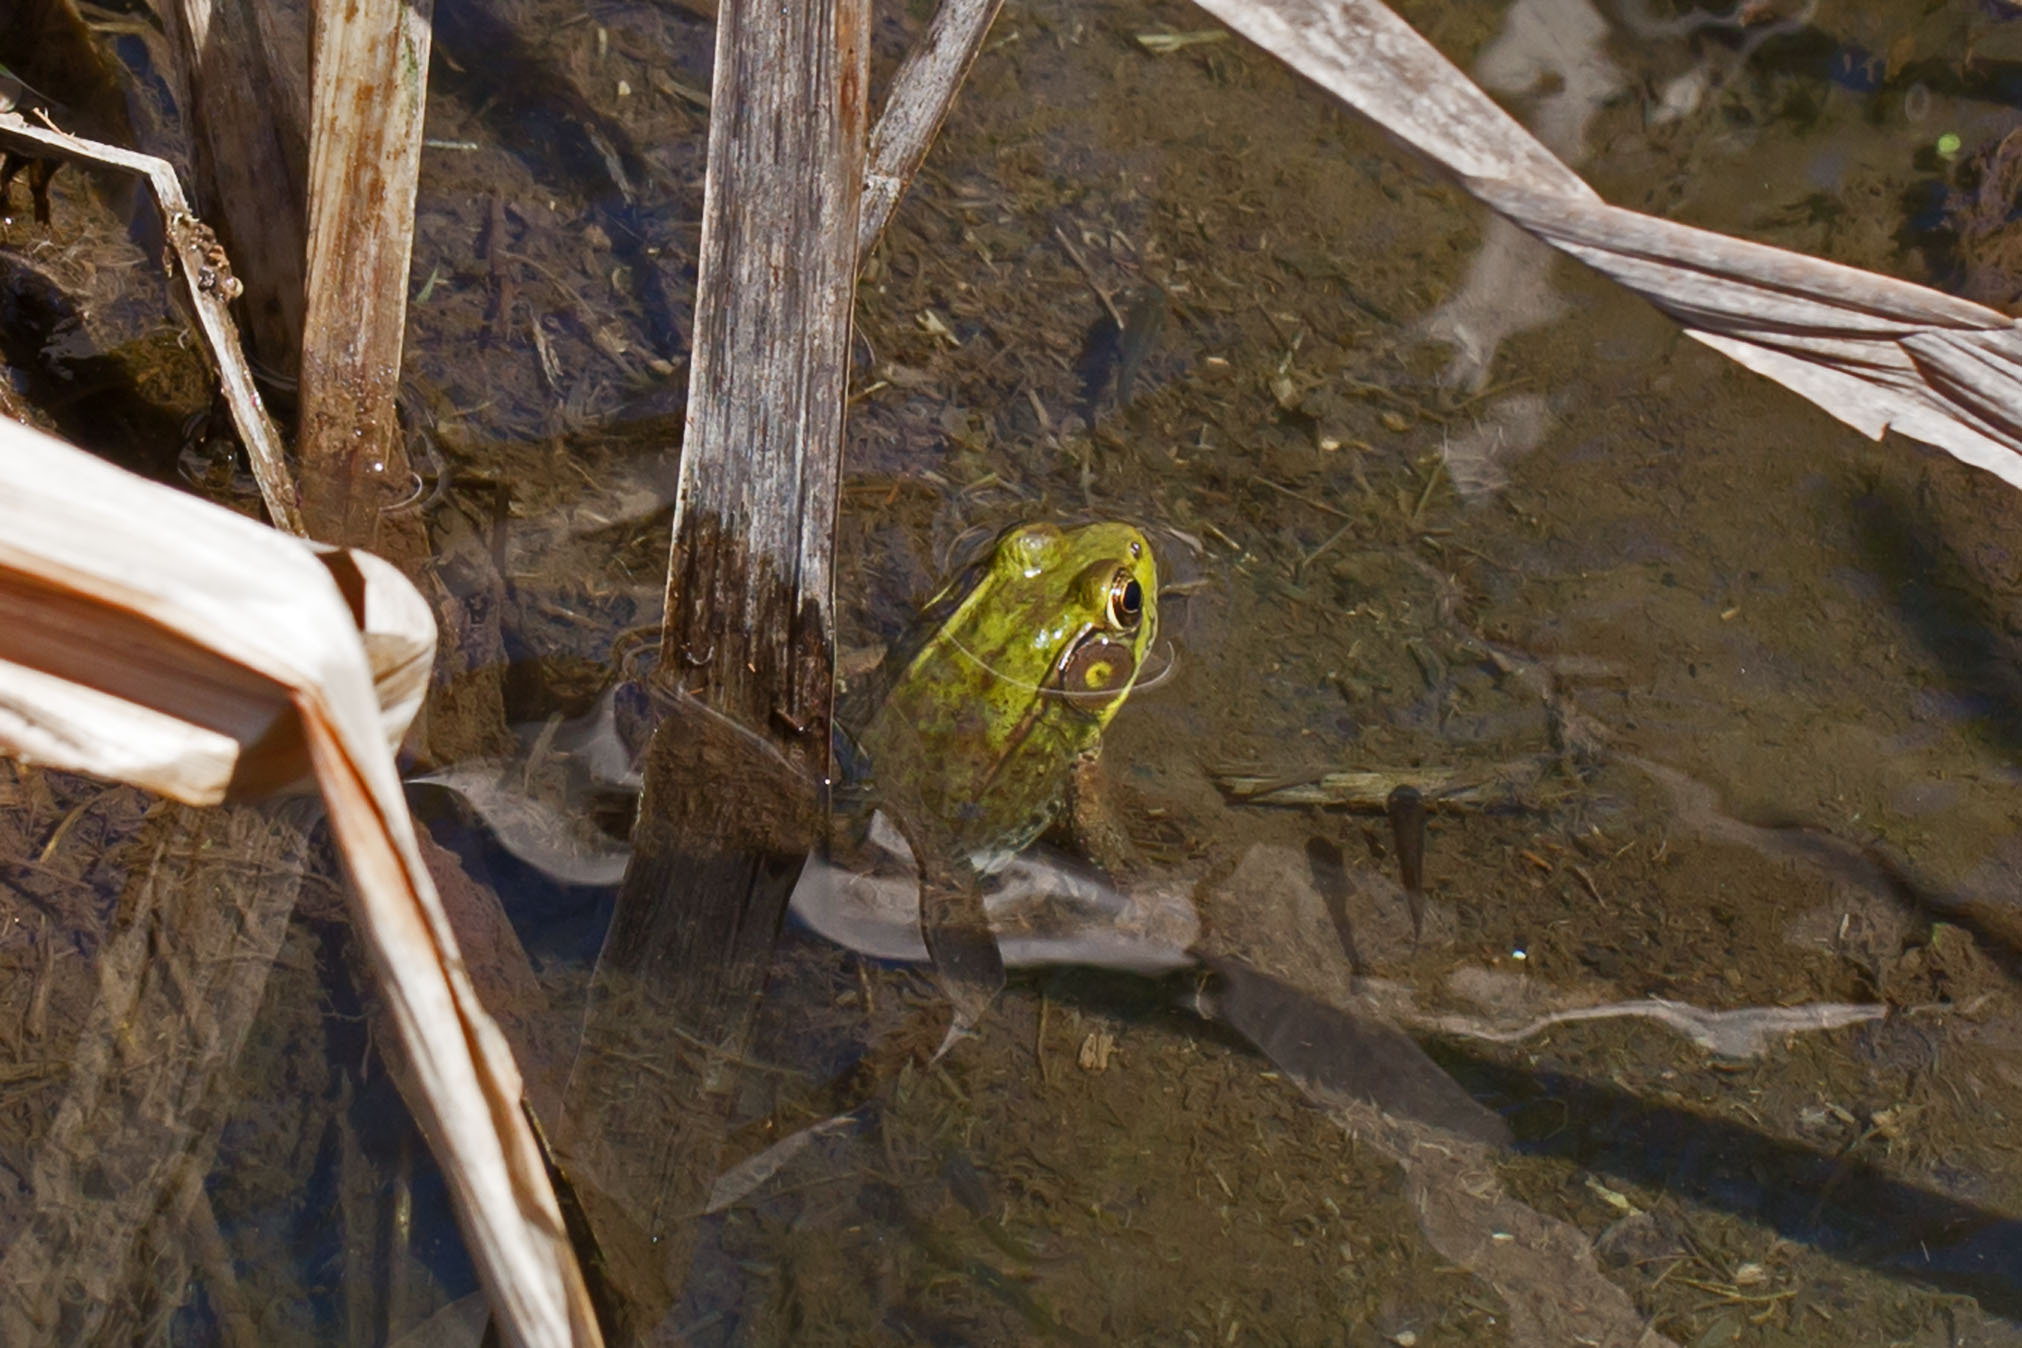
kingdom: Animalia
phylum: Chordata
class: Amphibia
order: Anura
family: Ranidae
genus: Lithobates
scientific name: Lithobates clamitans
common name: Green frog
